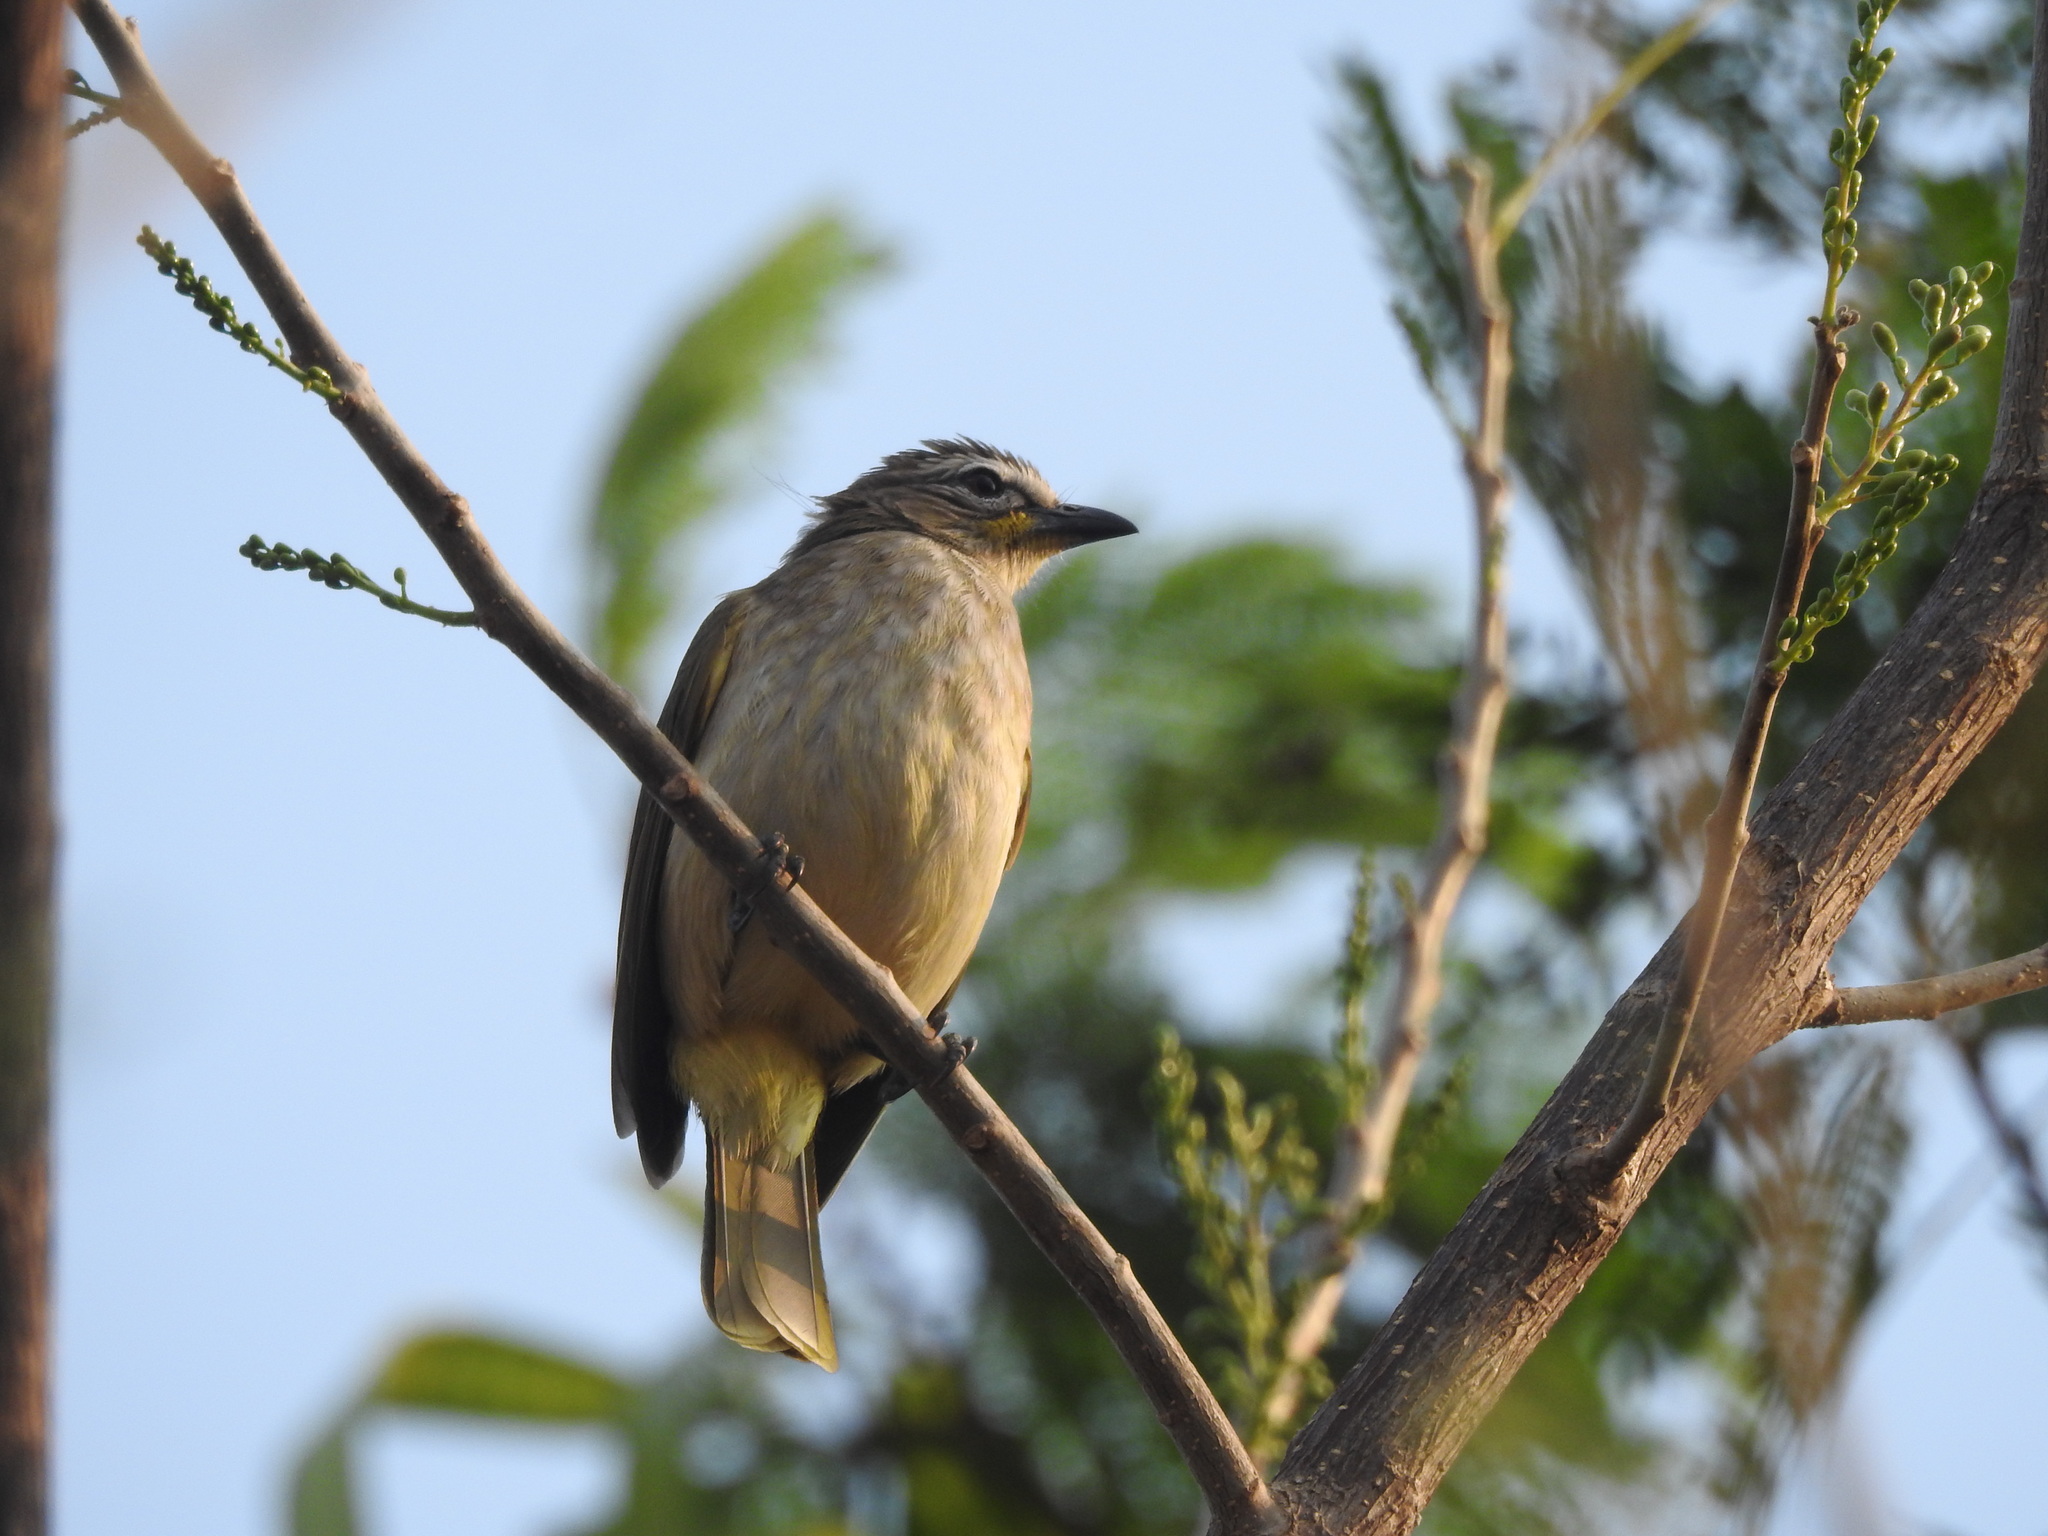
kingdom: Animalia
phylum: Chordata
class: Aves
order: Passeriformes
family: Pycnonotidae
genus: Pycnonotus
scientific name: Pycnonotus luteolus
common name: White-browed bulbul
